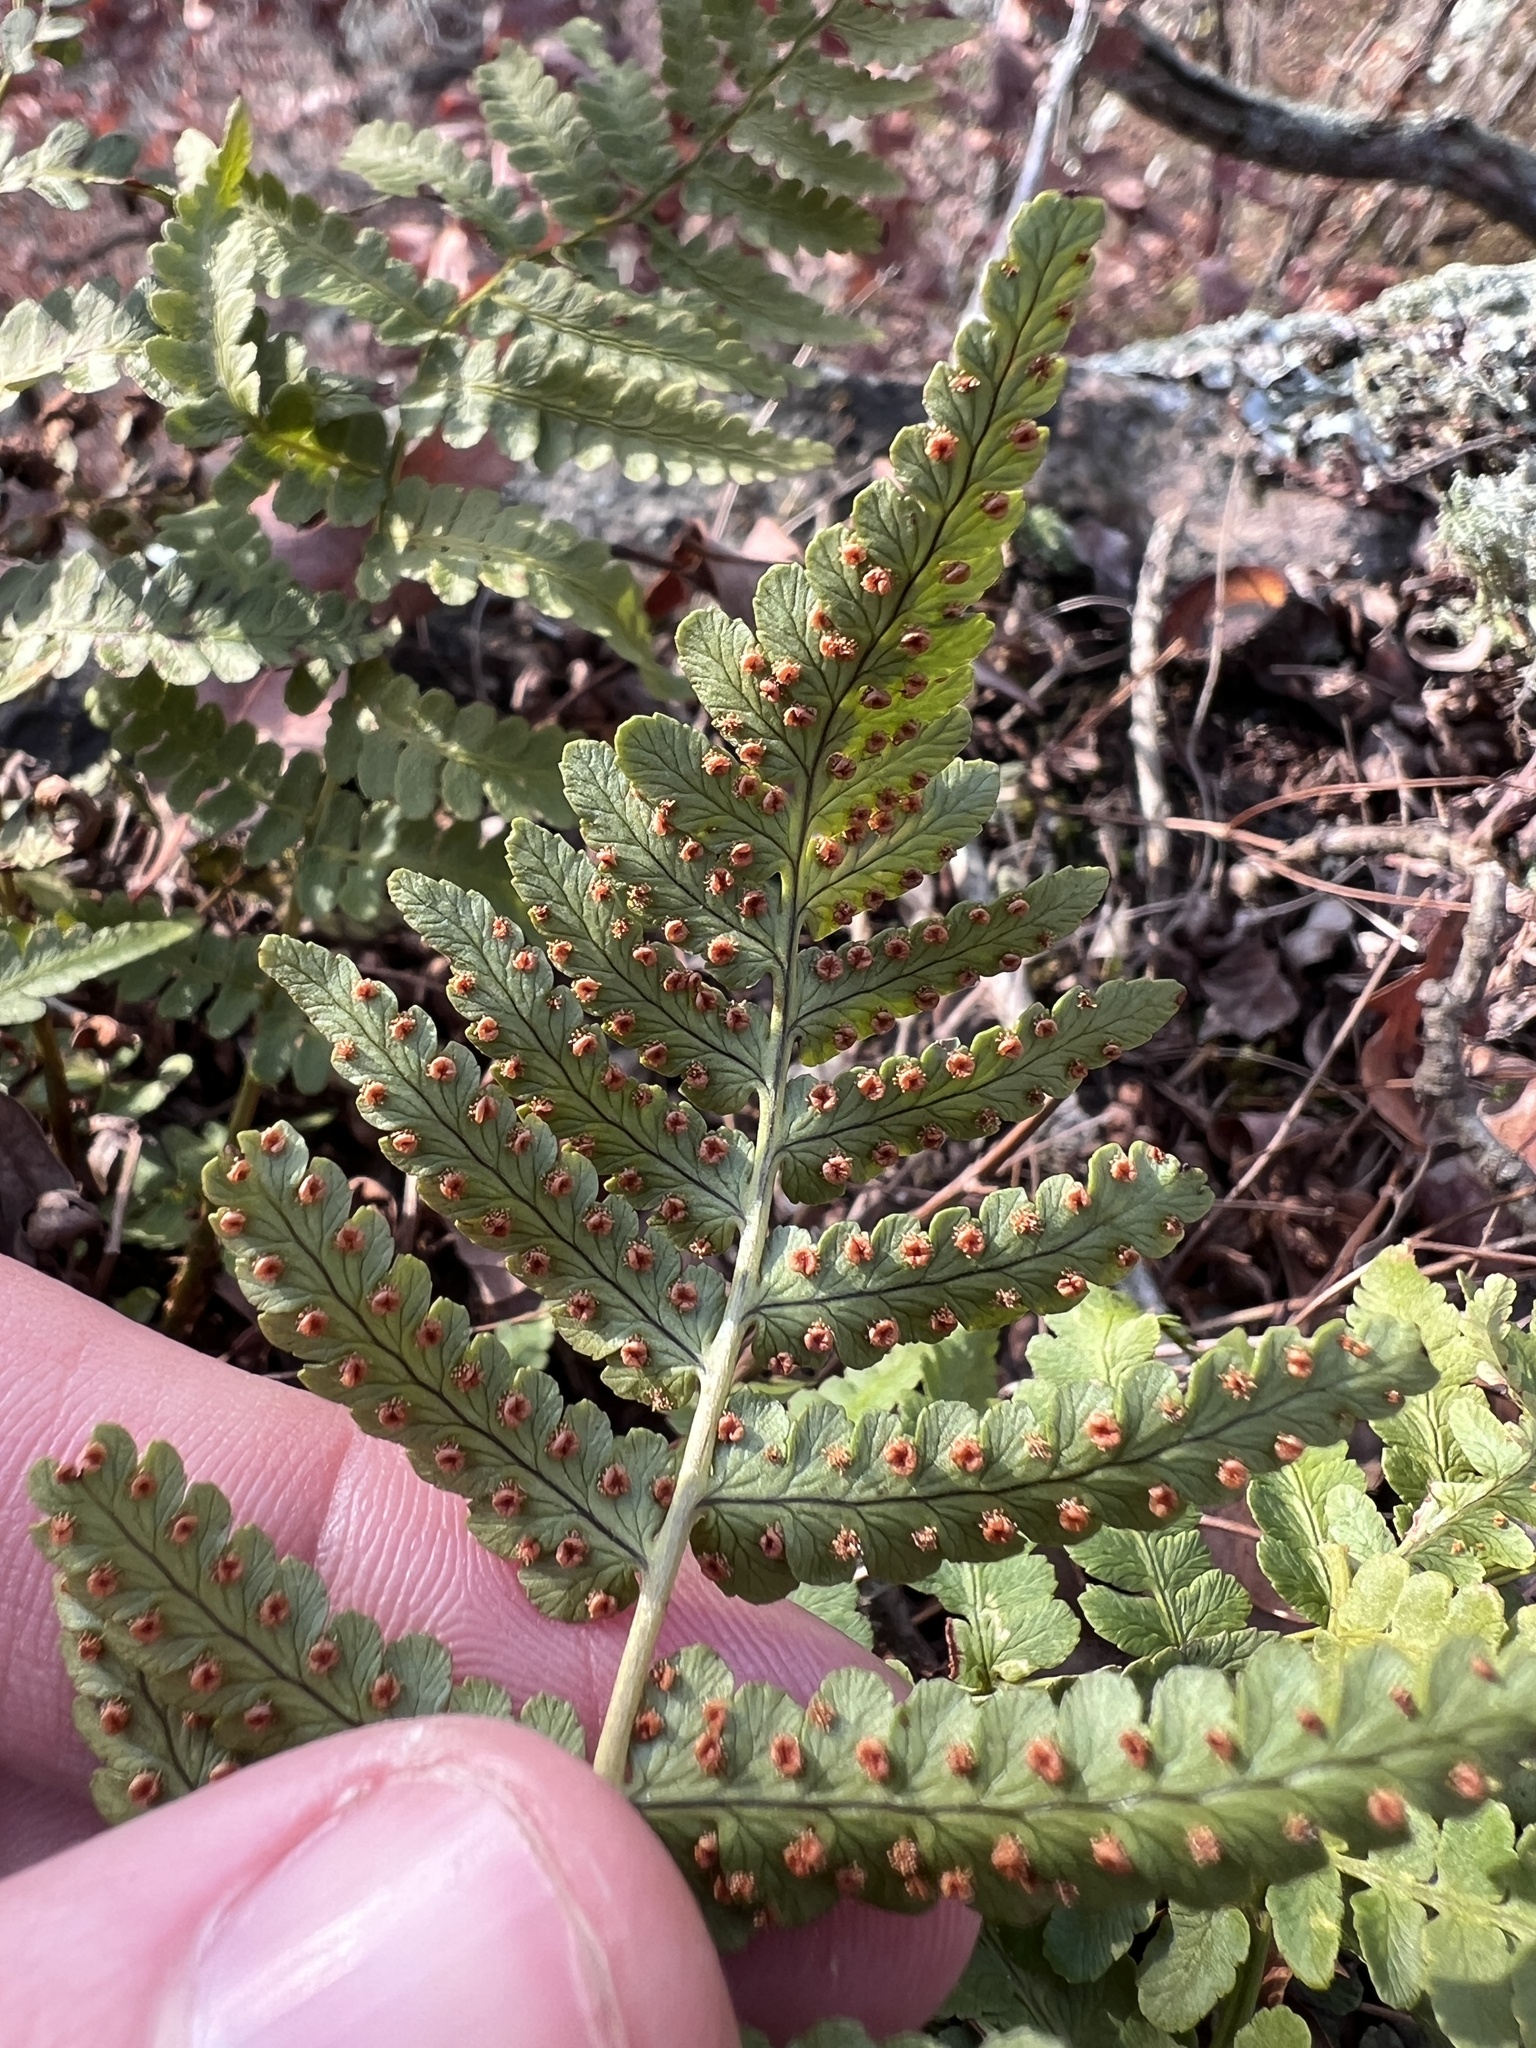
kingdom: Plantae
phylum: Tracheophyta
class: Polypodiopsida
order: Polypodiales
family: Dryopteridaceae
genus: Dryopteris
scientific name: Dryopteris marginalis
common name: Marginal wood fern
